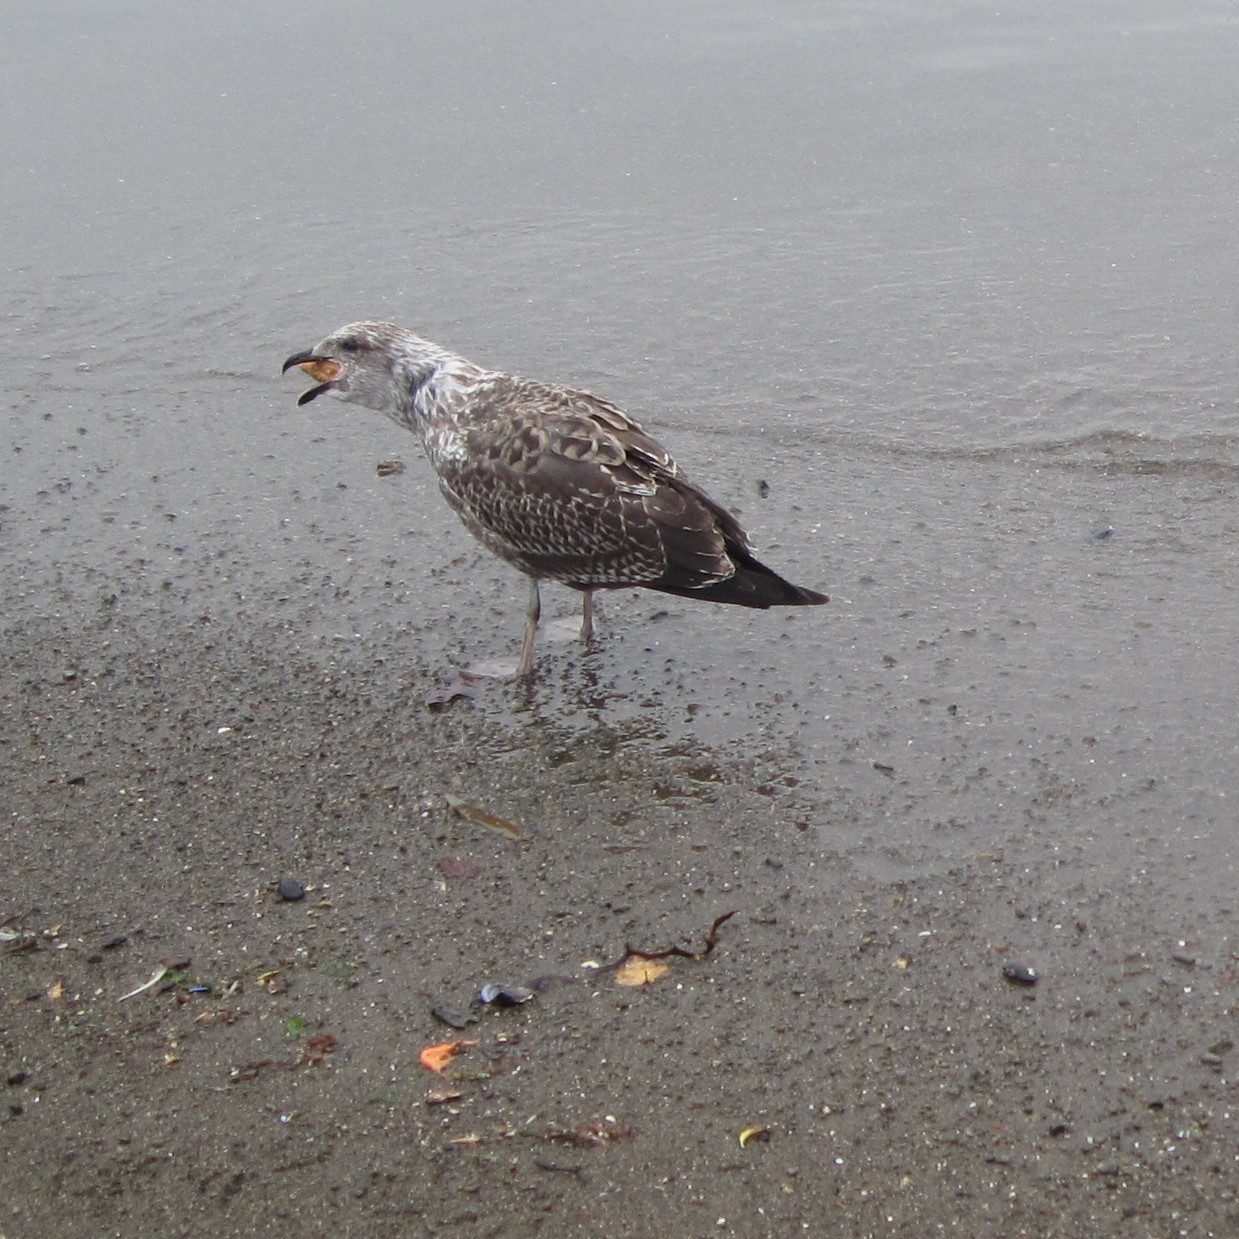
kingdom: Animalia
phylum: Chordata
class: Aves
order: Charadriiformes
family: Laridae
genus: Larus
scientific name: Larus dominicanus
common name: Kelp gull
